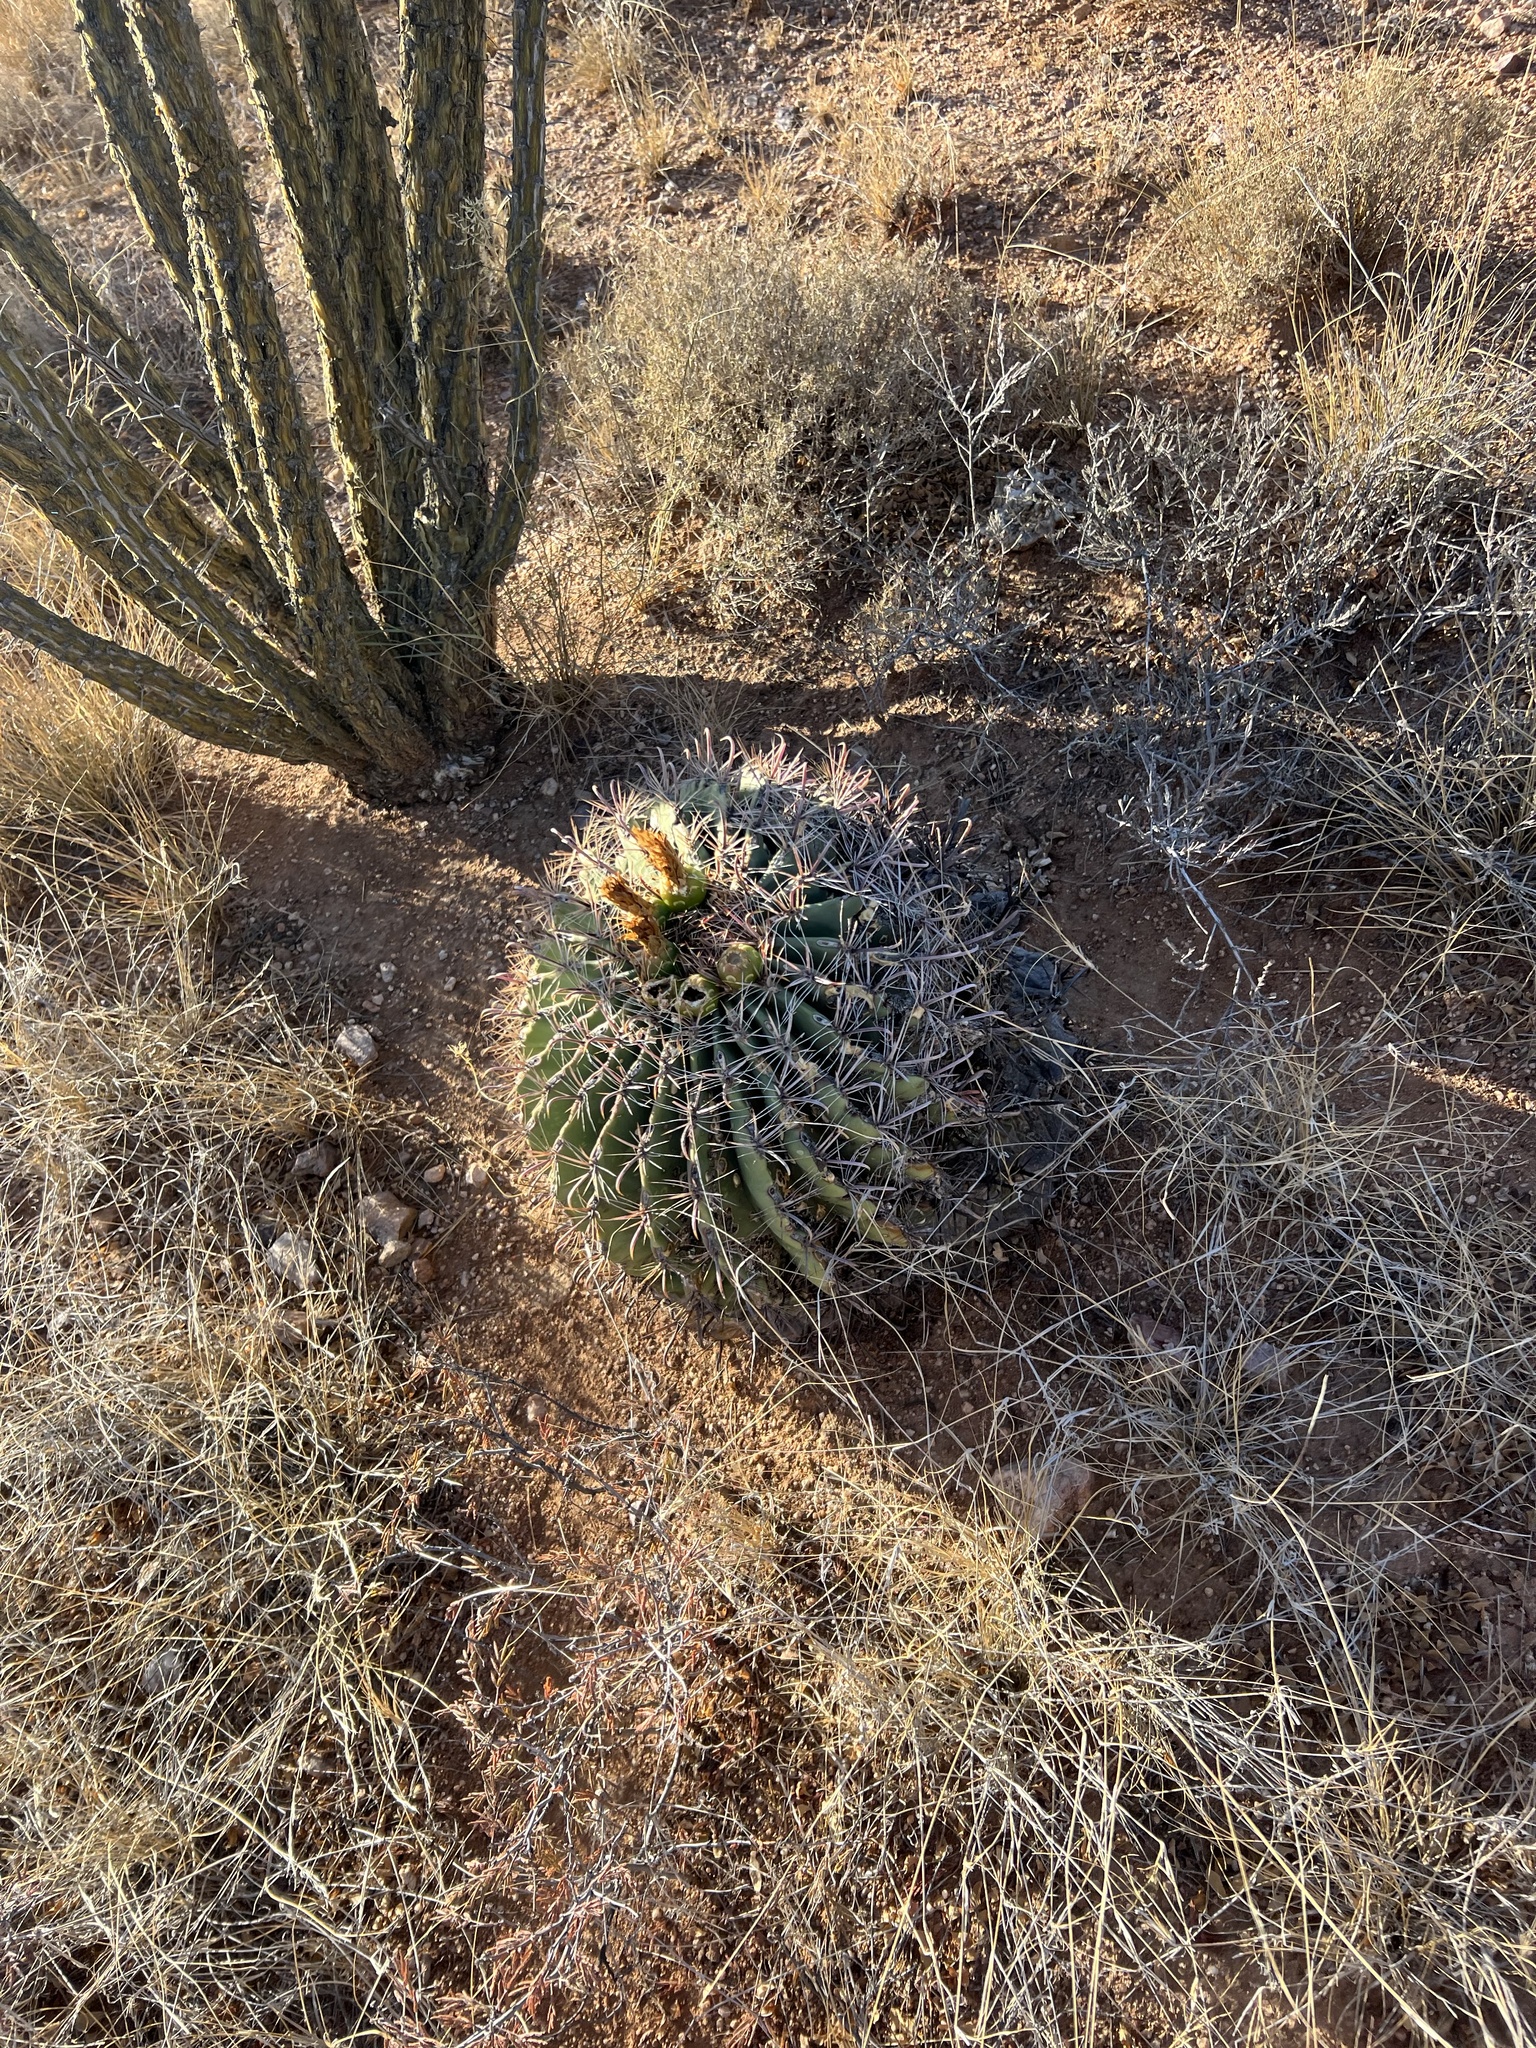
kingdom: Plantae
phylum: Tracheophyta
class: Magnoliopsida
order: Caryophyllales
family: Cactaceae
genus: Ferocactus
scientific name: Ferocactus wislizeni
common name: Candy barrel cactus
